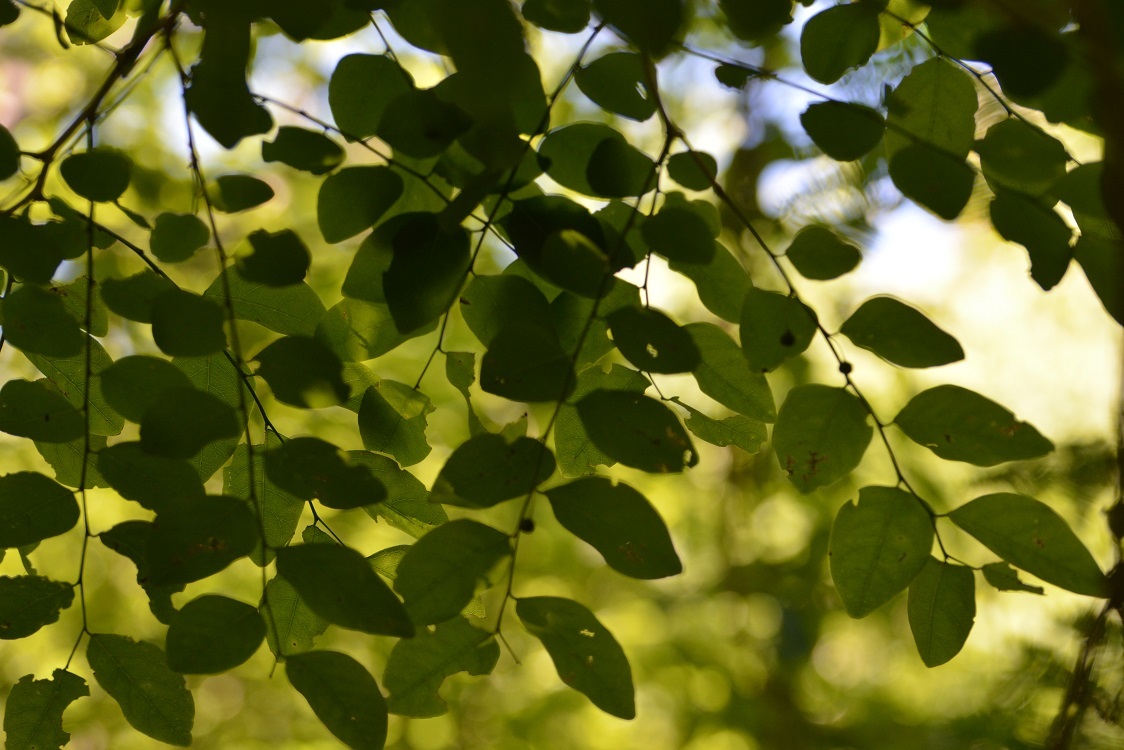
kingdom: Plantae
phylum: Tracheophyta
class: Magnoliopsida
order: Malpighiales
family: Phyllanthaceae
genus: Phyllanthus
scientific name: Phyllanthus mocinoanus
